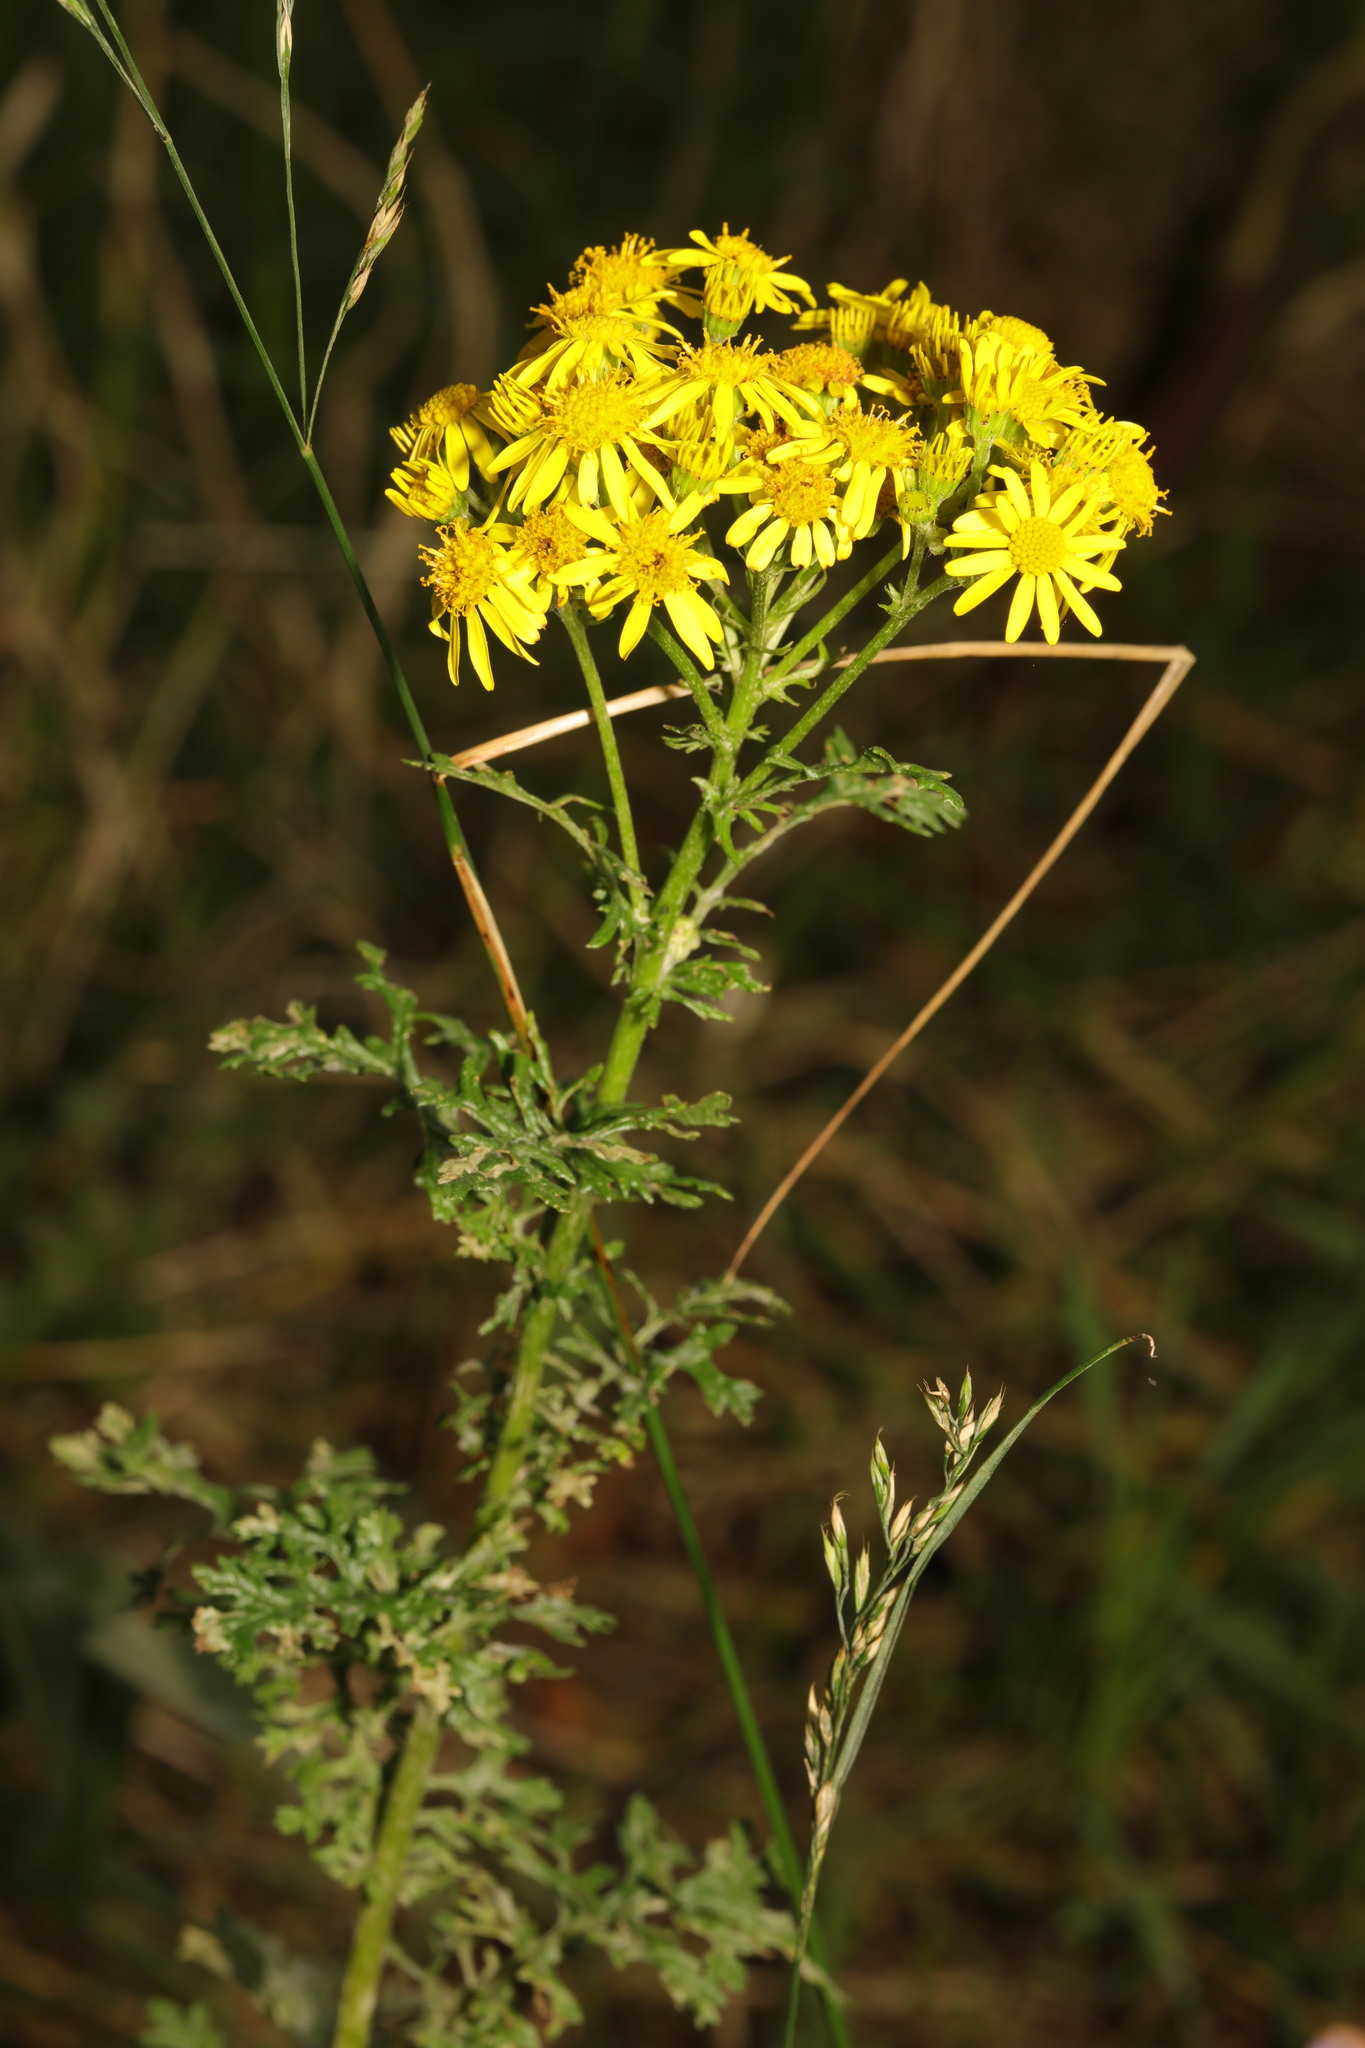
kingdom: Plantae
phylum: Tracheophyta
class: Magnoliopsida
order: Asterales
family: Asteraceae
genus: Jacobaea
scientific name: Jacobaea vulgaris
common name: Stinking willie
